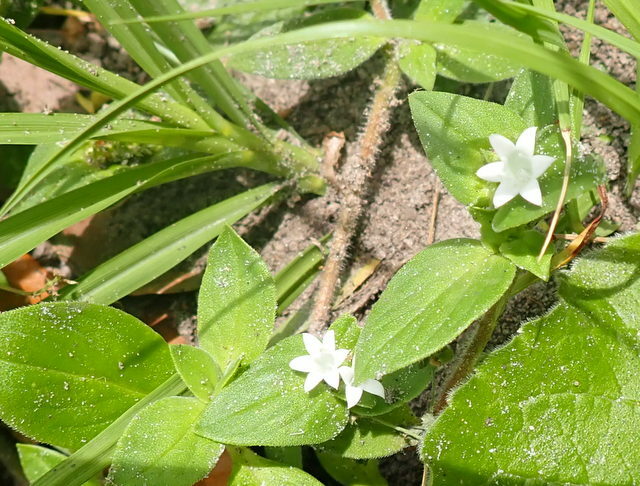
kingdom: Plantae
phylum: Tracheophyta
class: Magnoliopsida
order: Gentianales
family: Rubiaceae
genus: Richardia
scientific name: Richardia scabra
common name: Rough mexican clover
